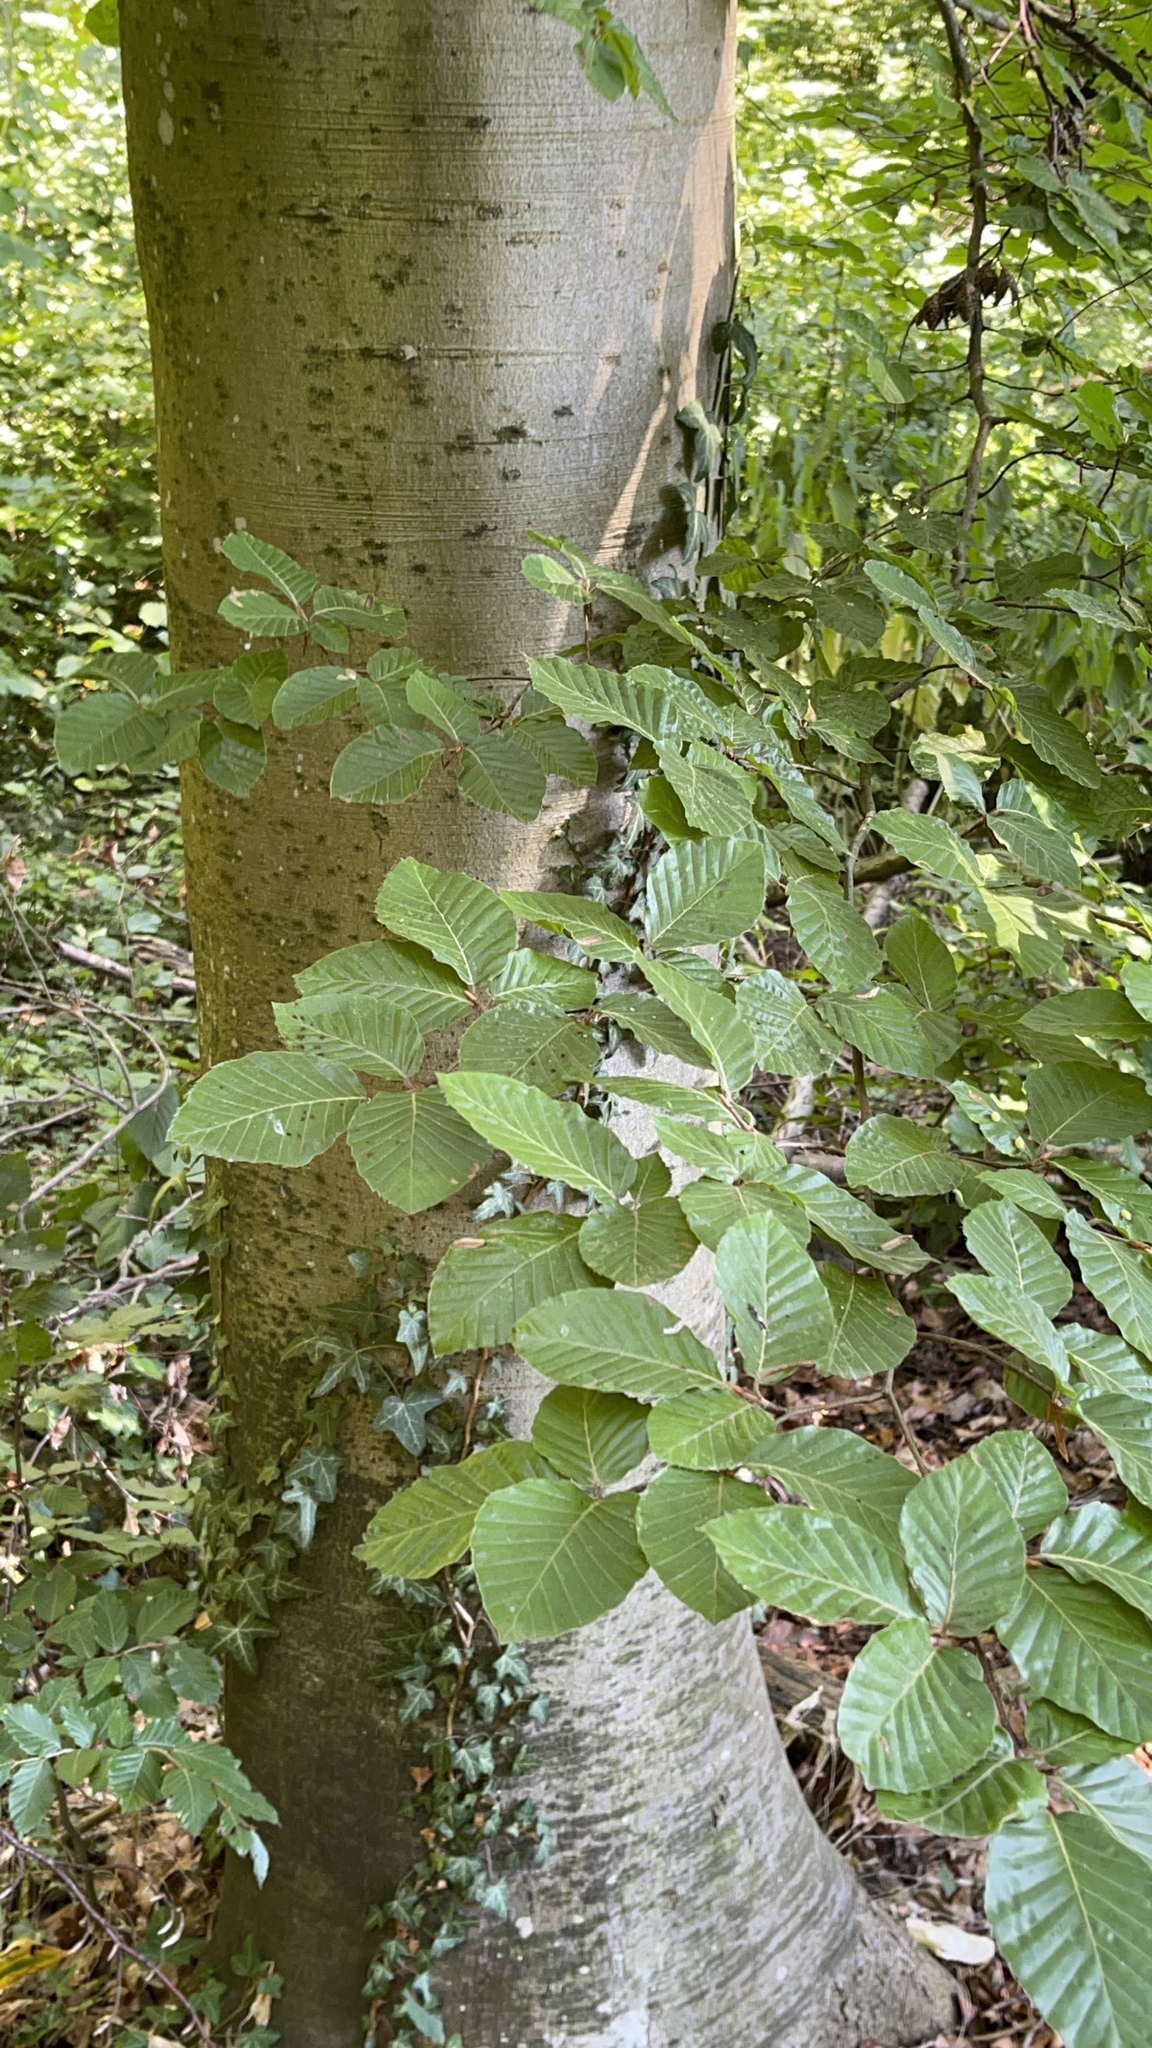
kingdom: Plantae
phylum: Tracheophyta
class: Magnoliopsida
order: Fagales
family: Fagaceae
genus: Fagus
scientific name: Fagus sylvatica
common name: Beech
